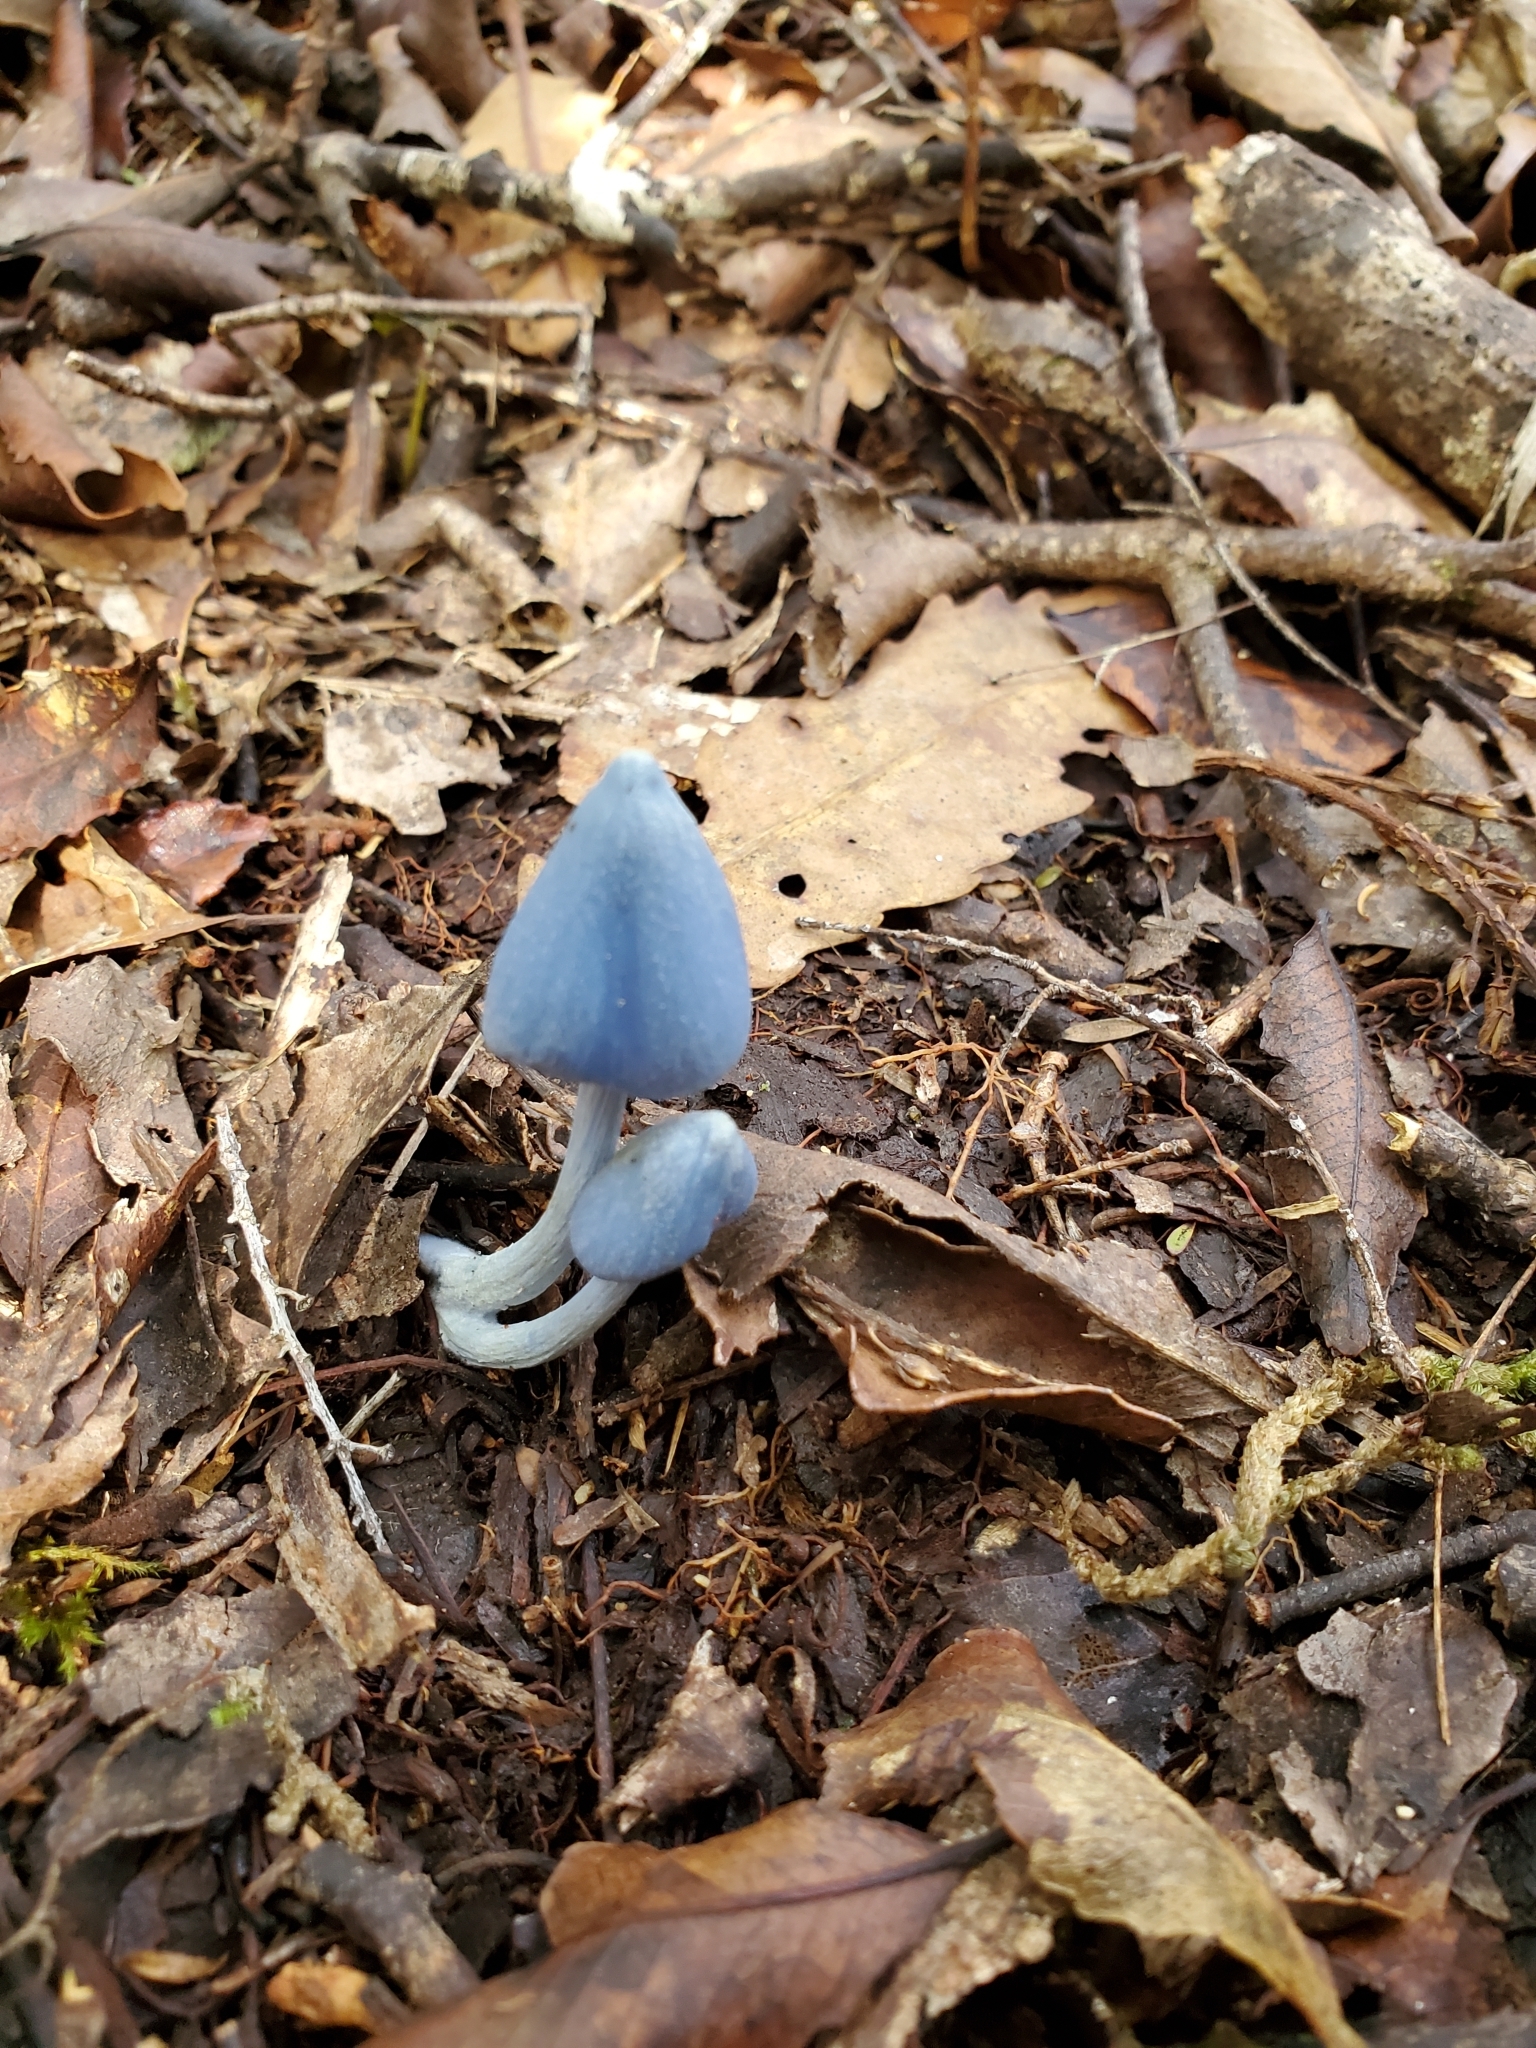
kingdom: Fungi
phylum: Basidiomycota
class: Agaricomycetes
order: Agaricales
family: Entolomataceae
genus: Entoloma
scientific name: Entoloma hochstetteri
